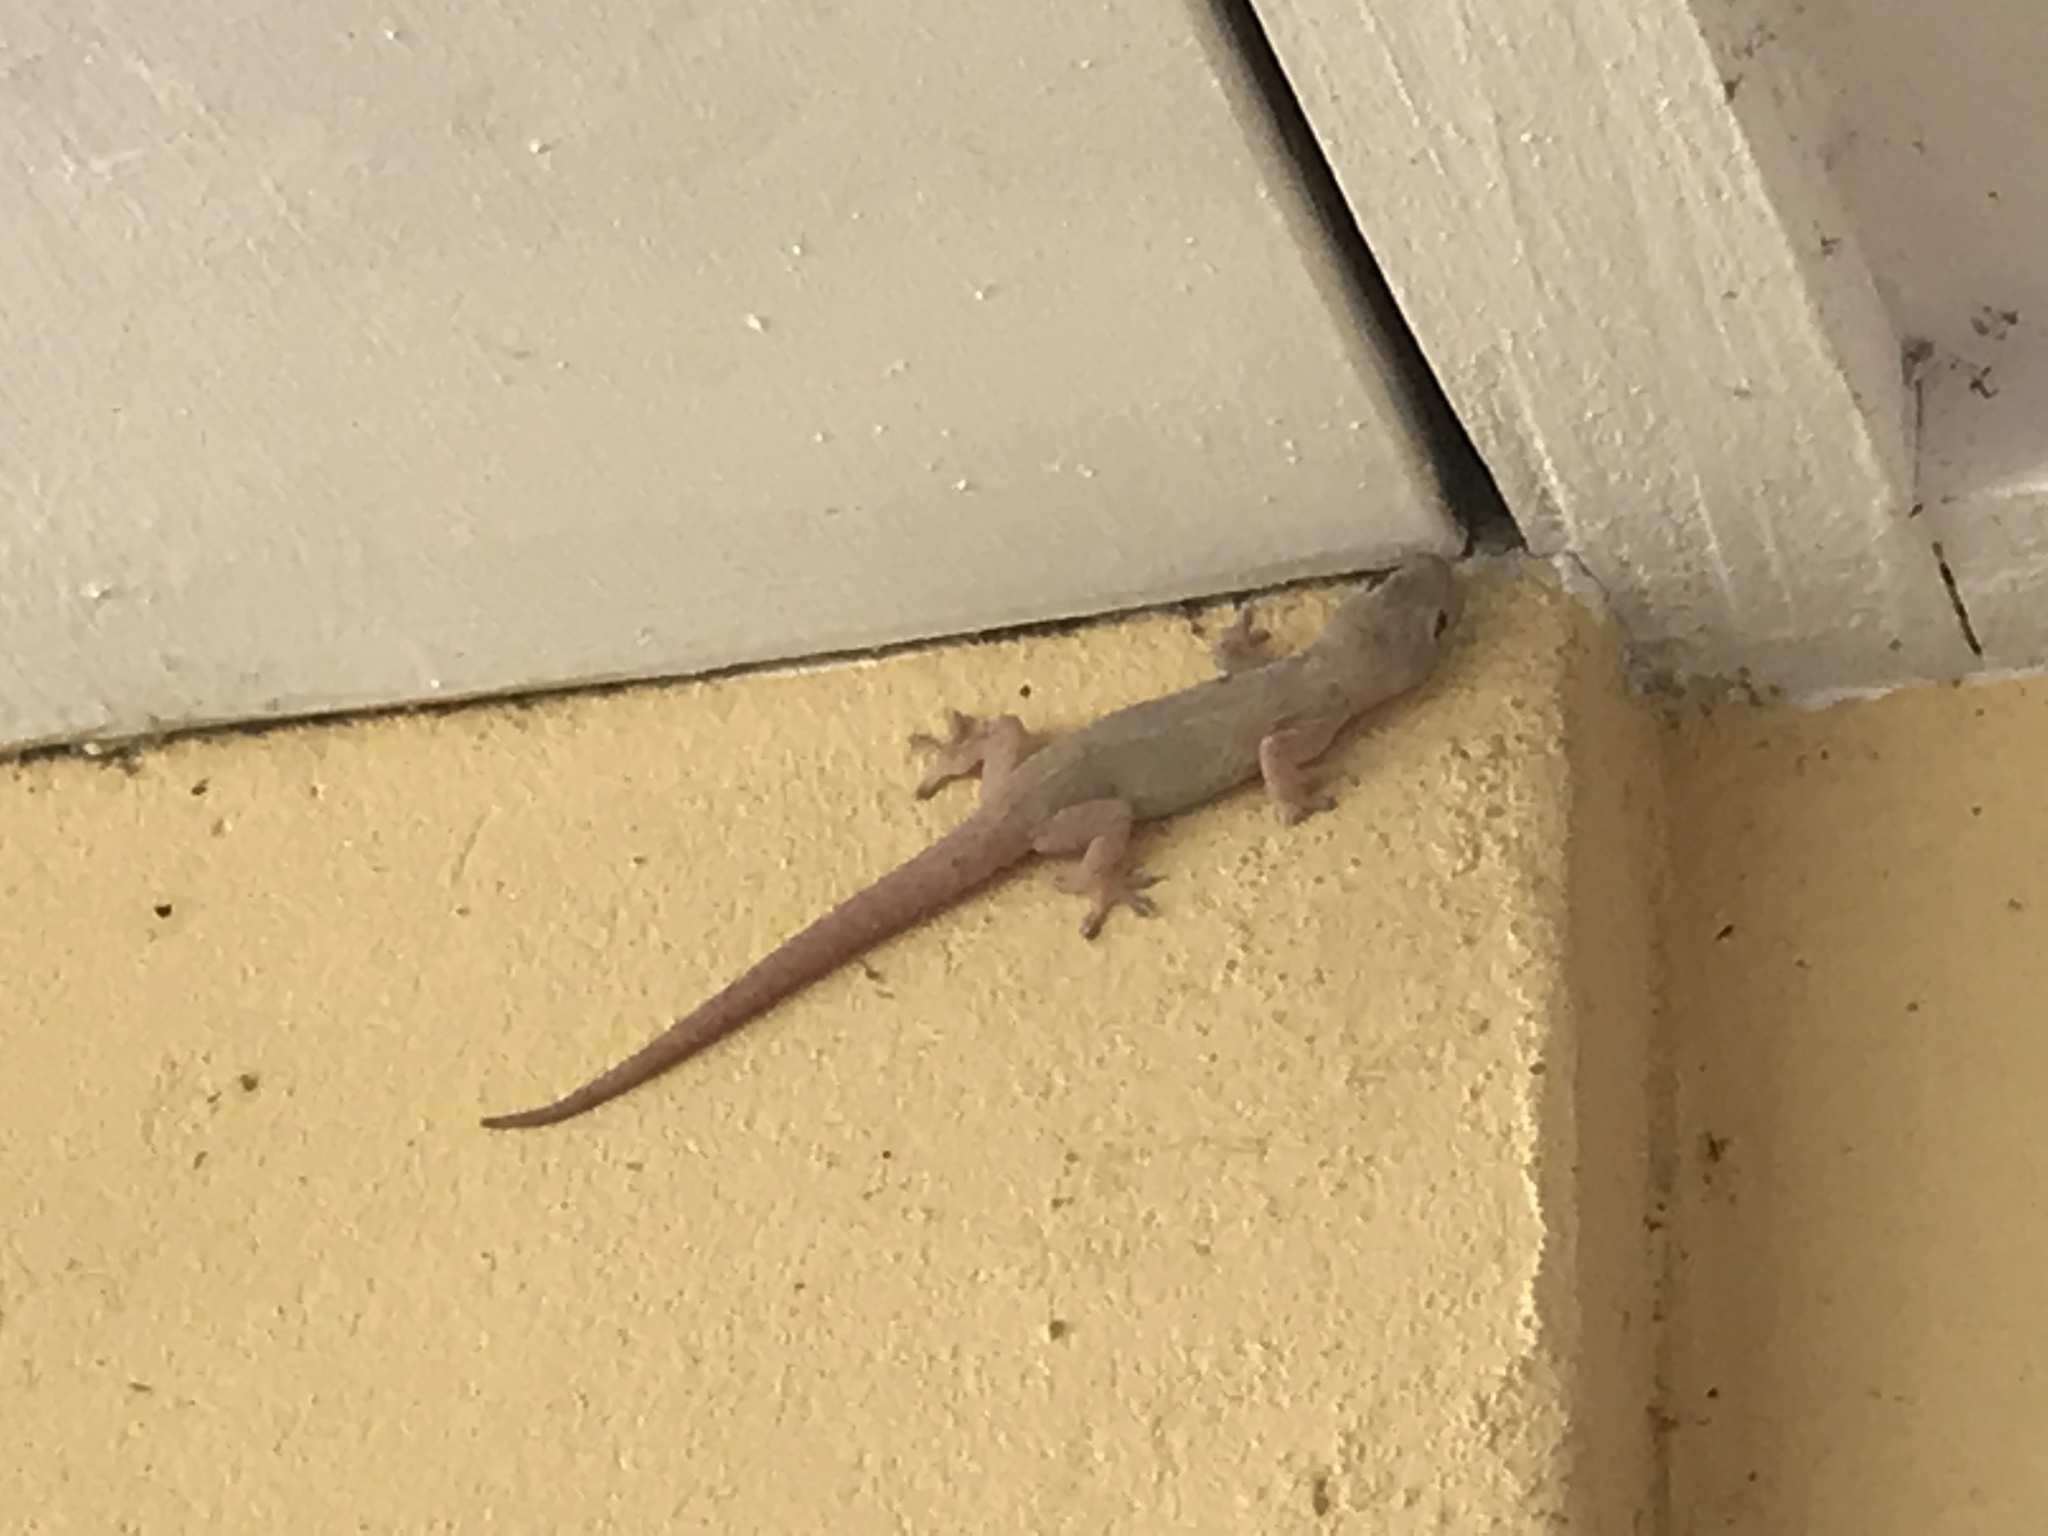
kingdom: Animalia
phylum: Chordata
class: Squamata
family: Gekkonidae
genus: Hemidactylus
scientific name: Hemidactylus frenatus
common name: Common house gecko
